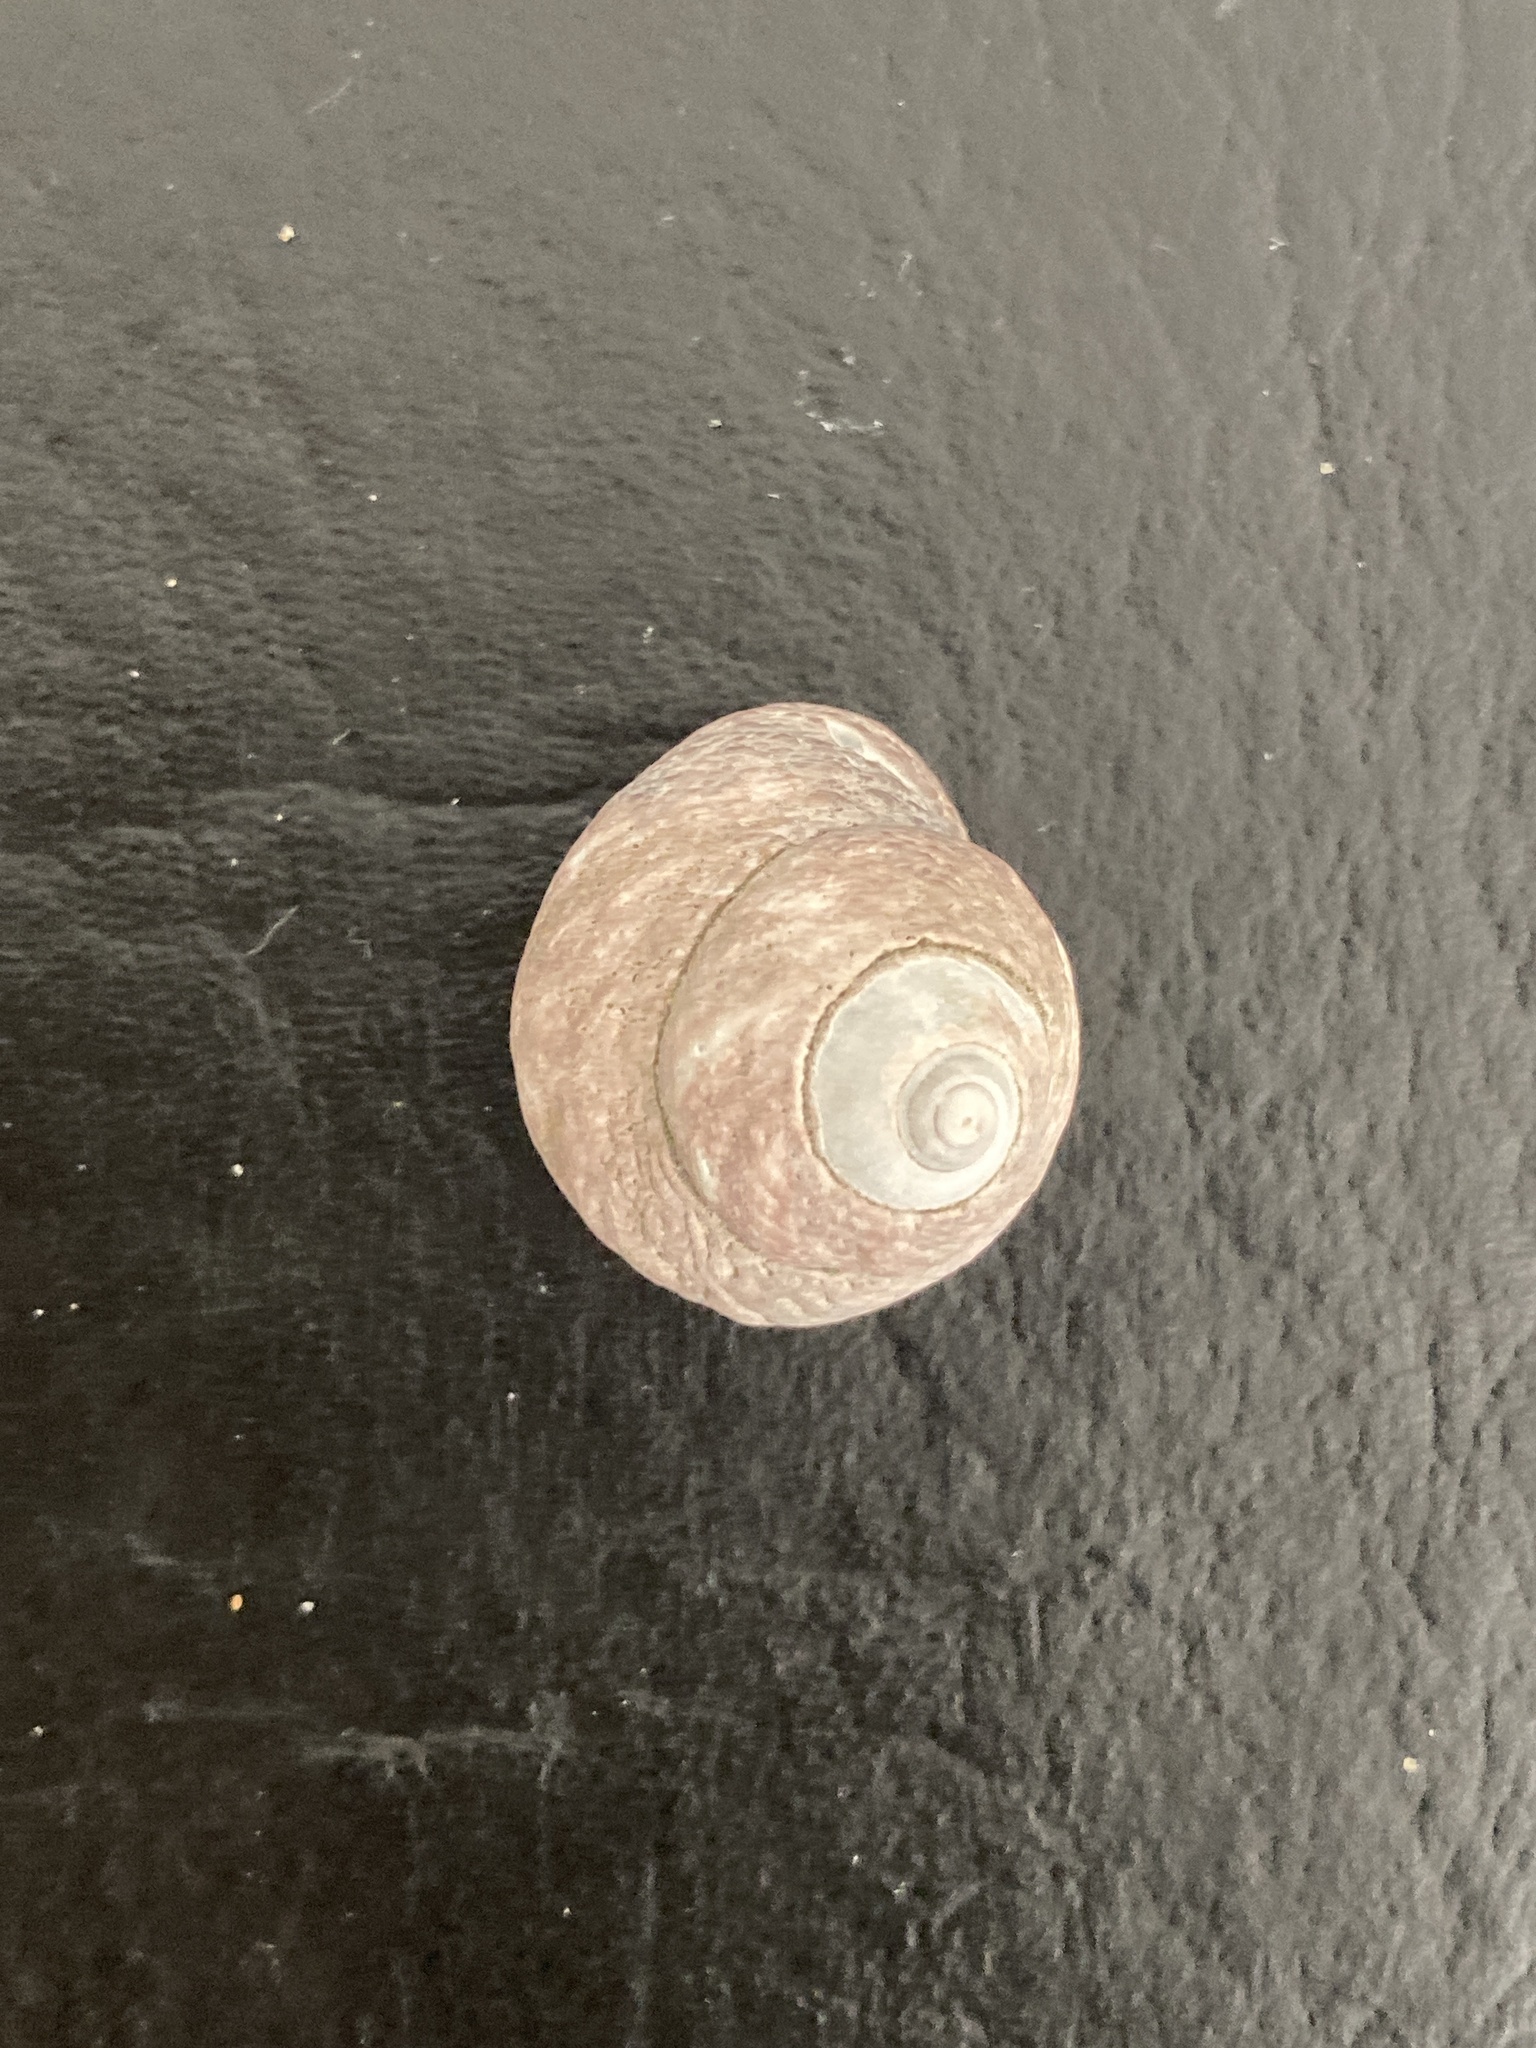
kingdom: Animalia
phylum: Mollusca
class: Gastropoda
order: Trochida
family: Tegulidae
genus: Tegula
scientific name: Tegula patagonica
